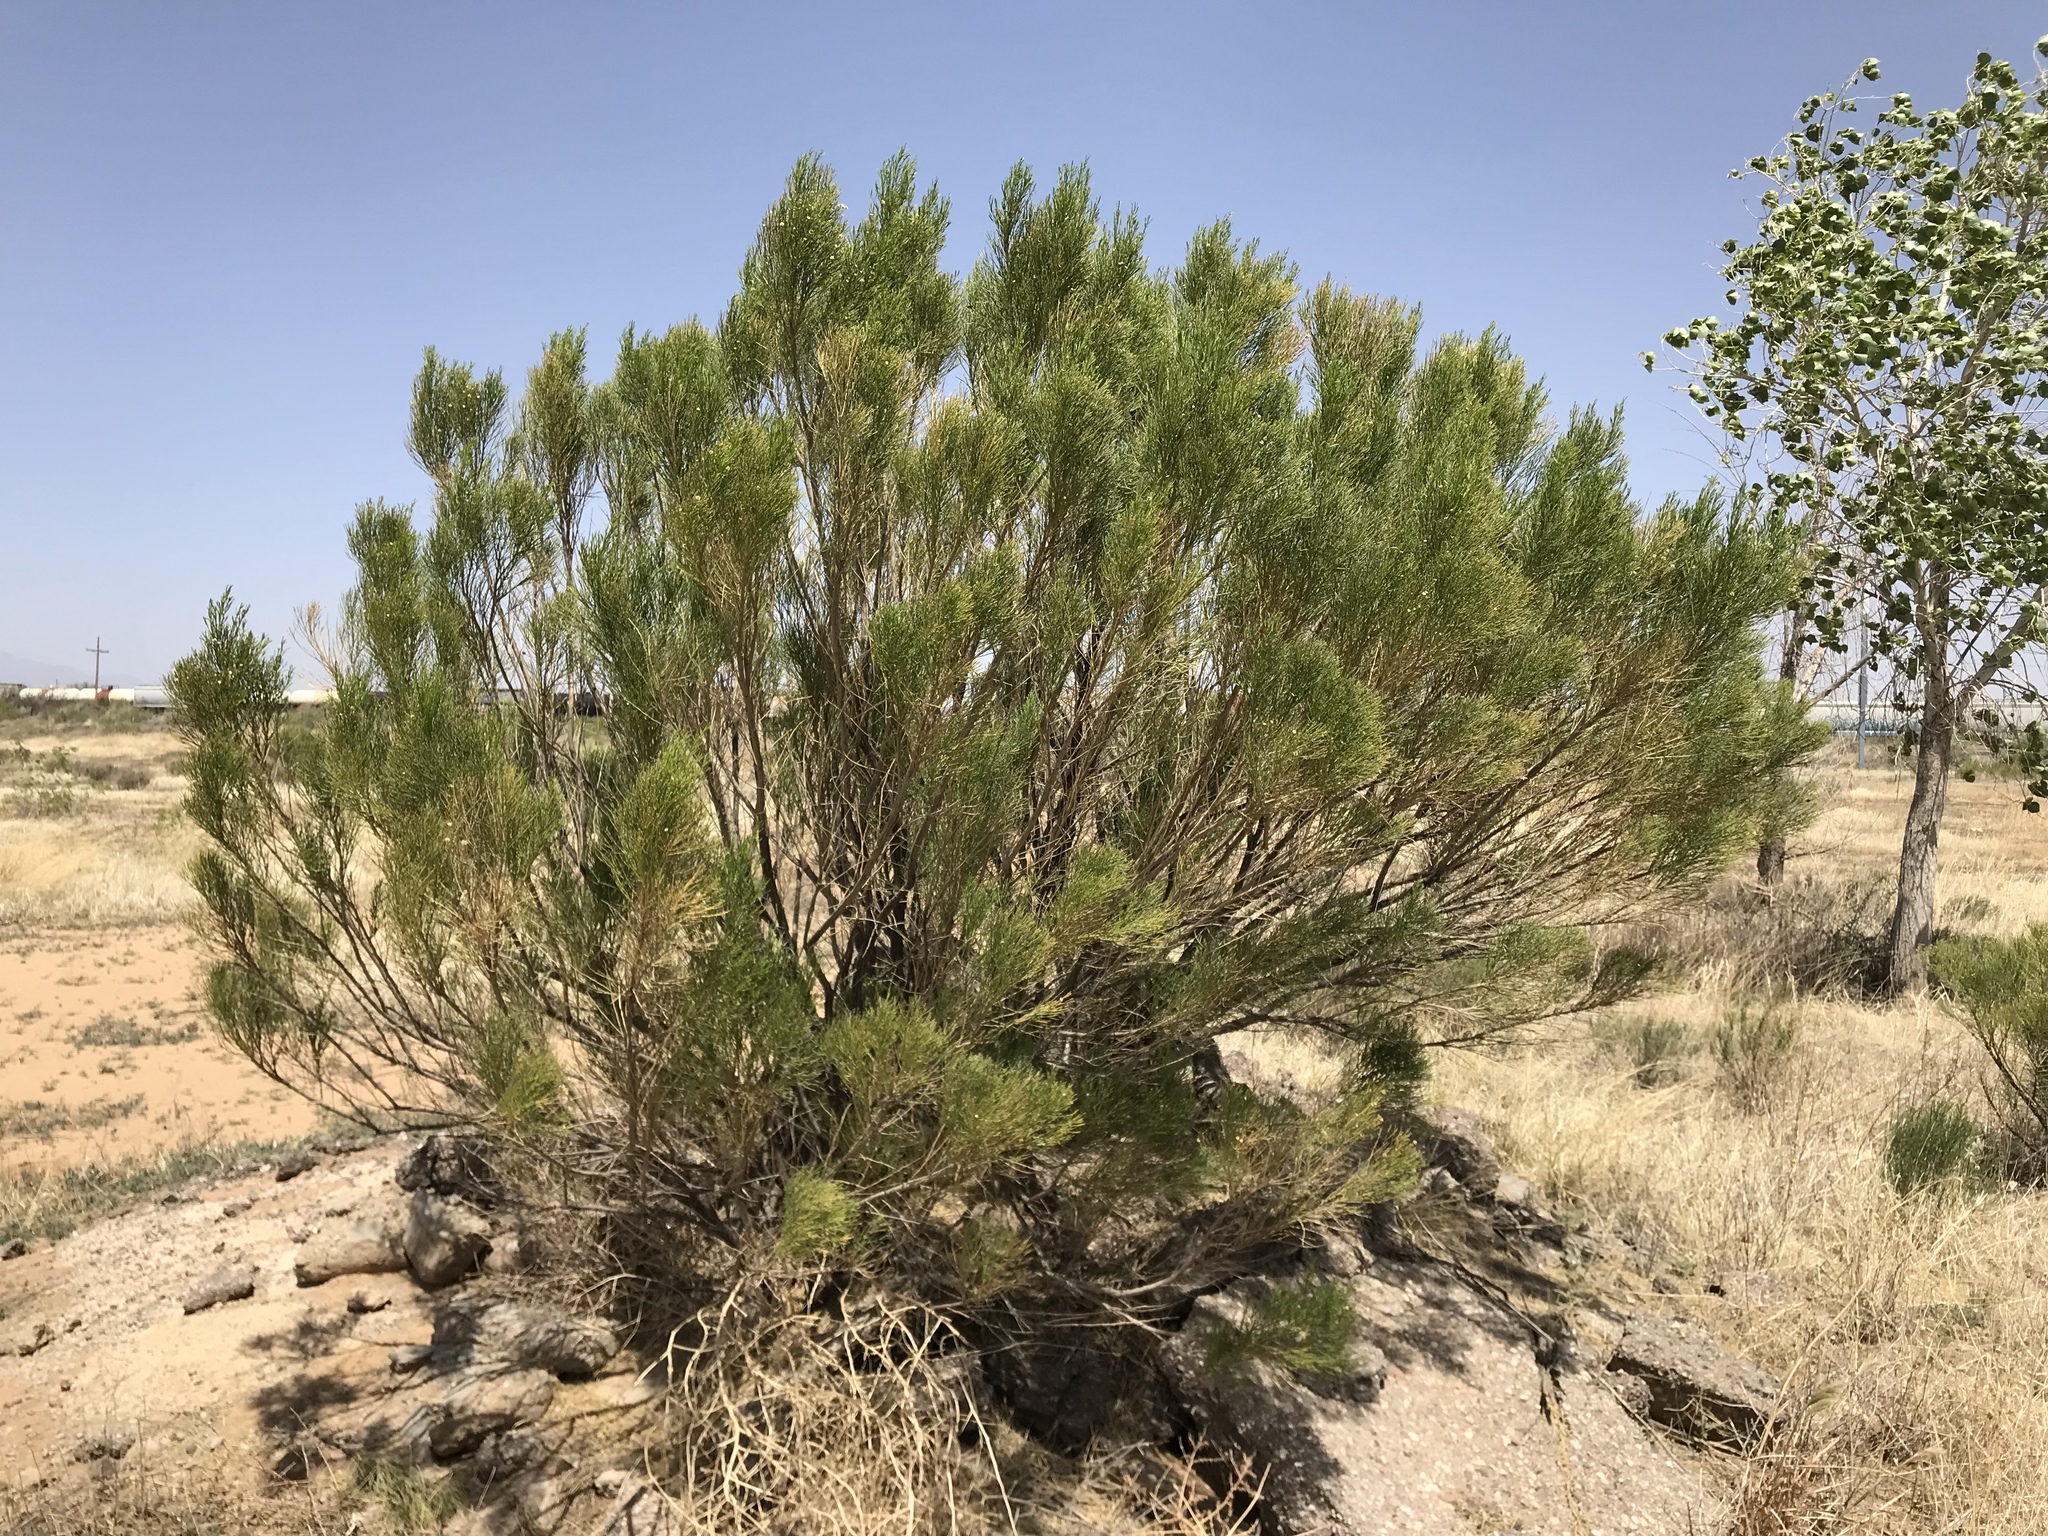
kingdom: Plantae
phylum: Tracheophyta
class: Magnoliopsida
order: Asterales
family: Asteraceae
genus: Baccharis
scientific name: Baccharis sarothroides
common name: Desert-broom
